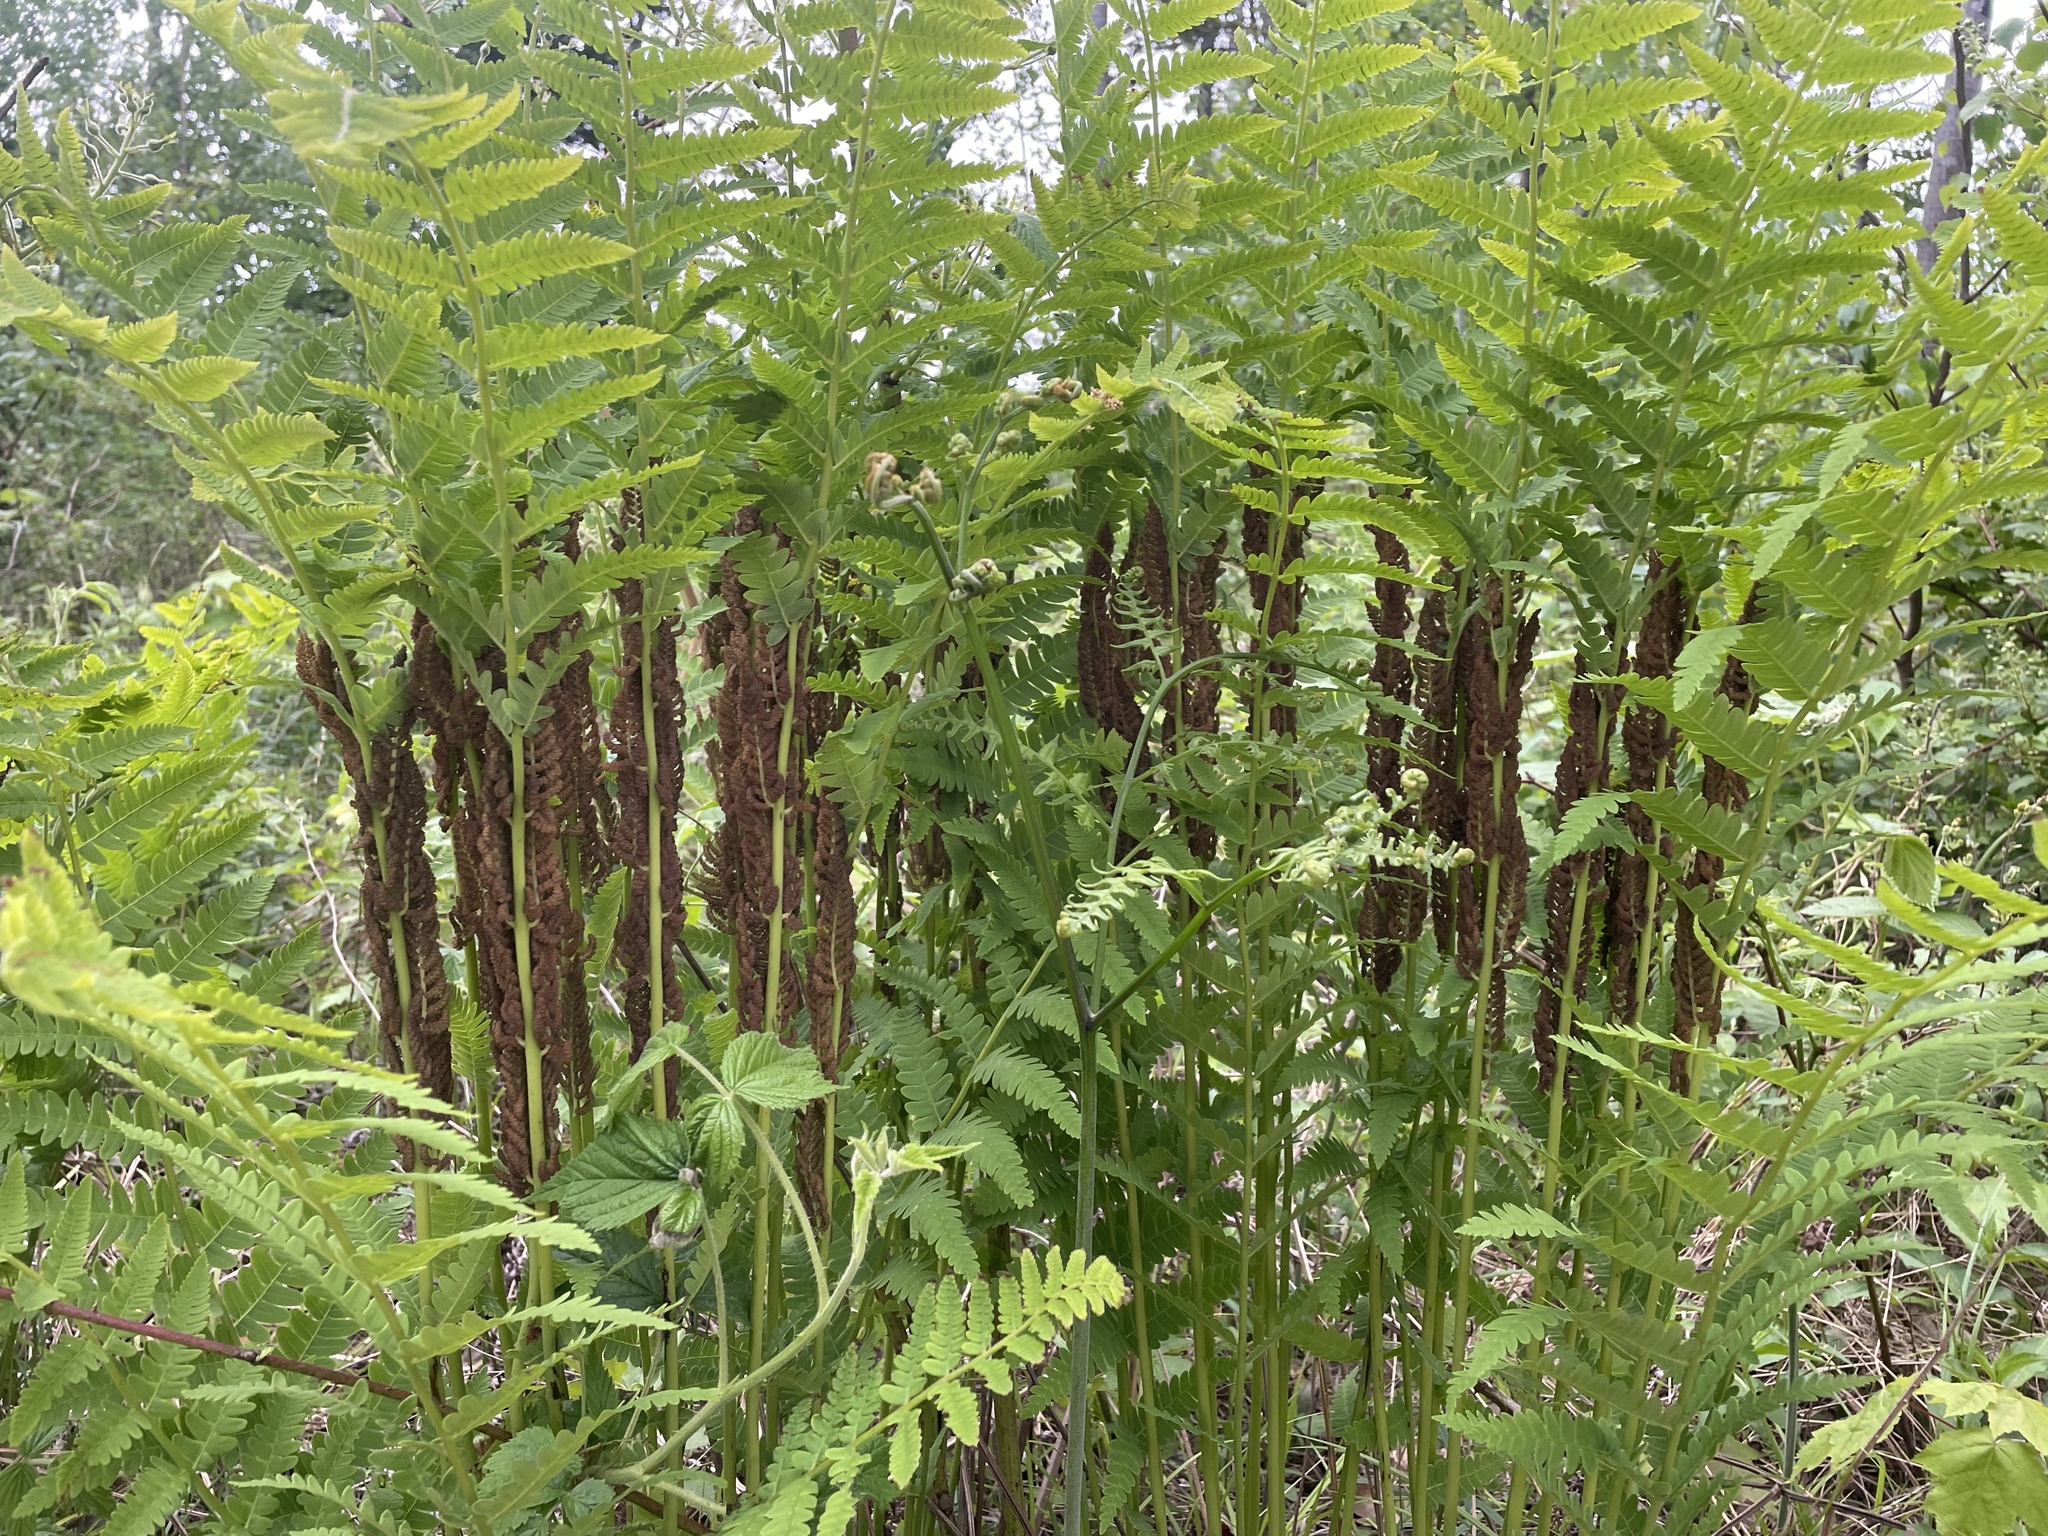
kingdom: Plantae
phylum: Tracheophyta
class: Polypodiopsida
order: Osmundales
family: Osmundaceae
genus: Claytosmunda
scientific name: Claytosmunda claytoniana
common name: Clayton's fern
